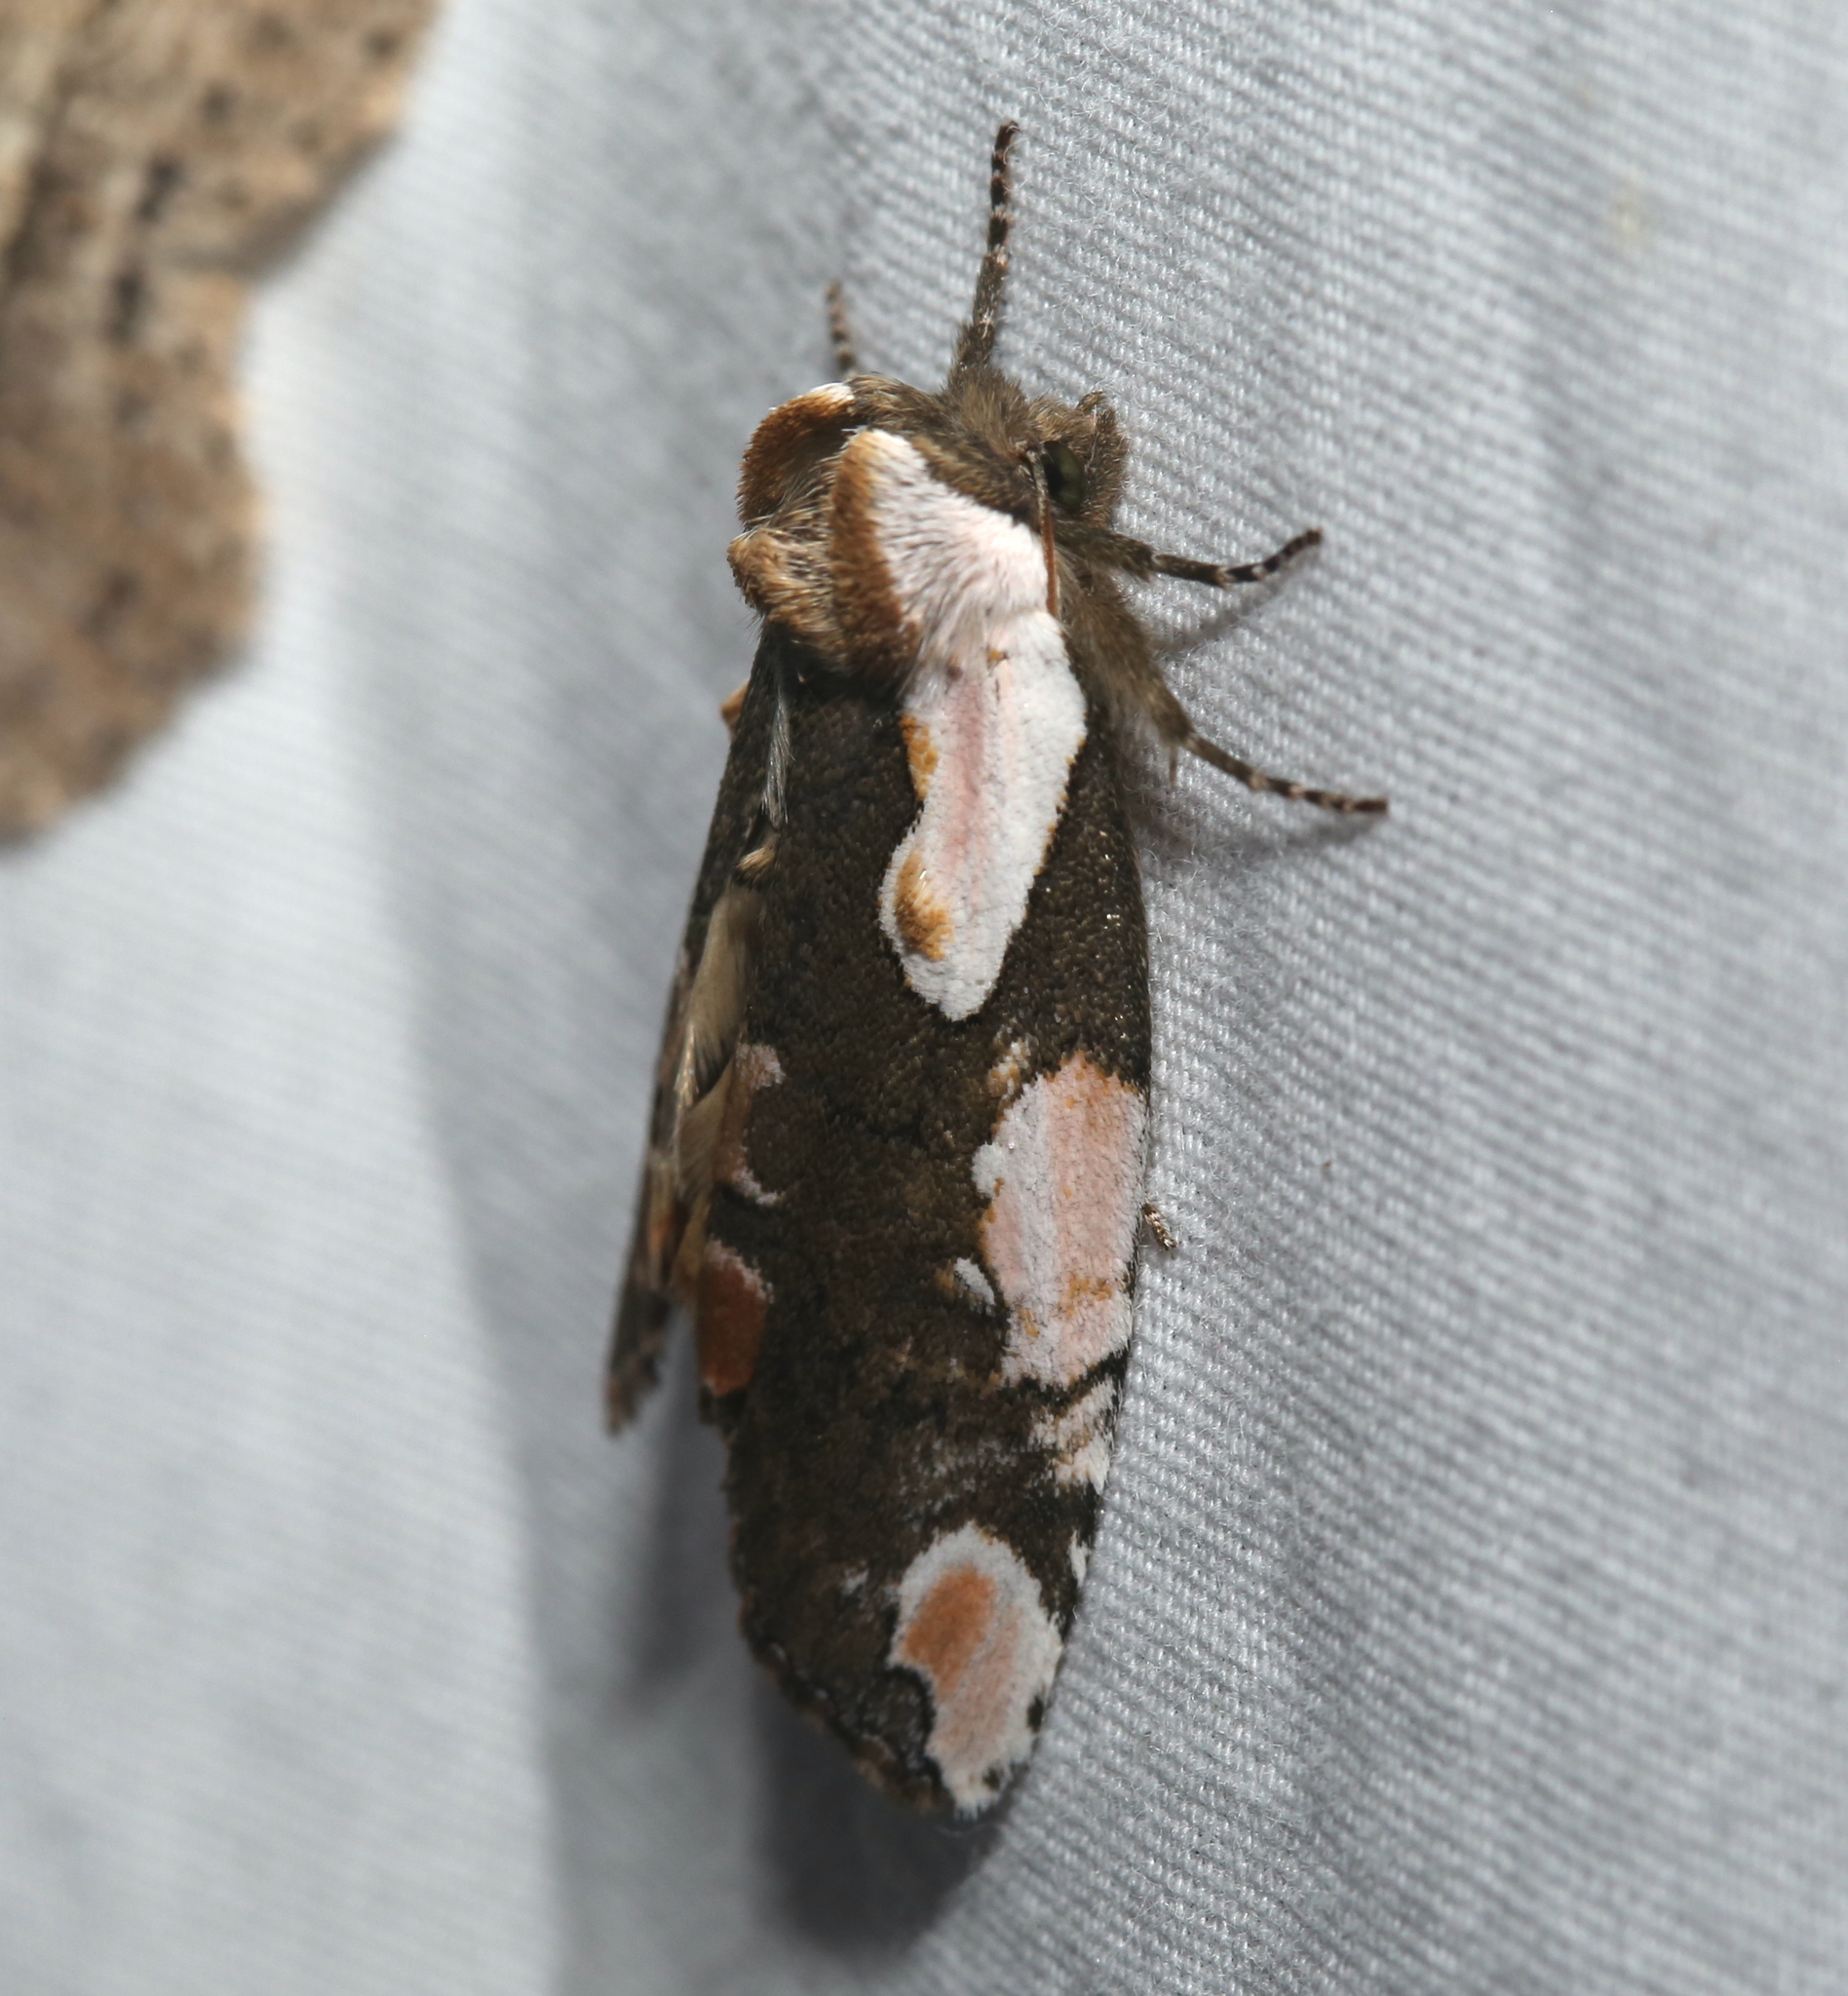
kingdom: Animalia
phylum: Arthropoda
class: Insecta
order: Lepidoptera
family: Drepanidae
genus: Euthyatira
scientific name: Euthyatira pudens
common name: Dogwood thyatirid moth
